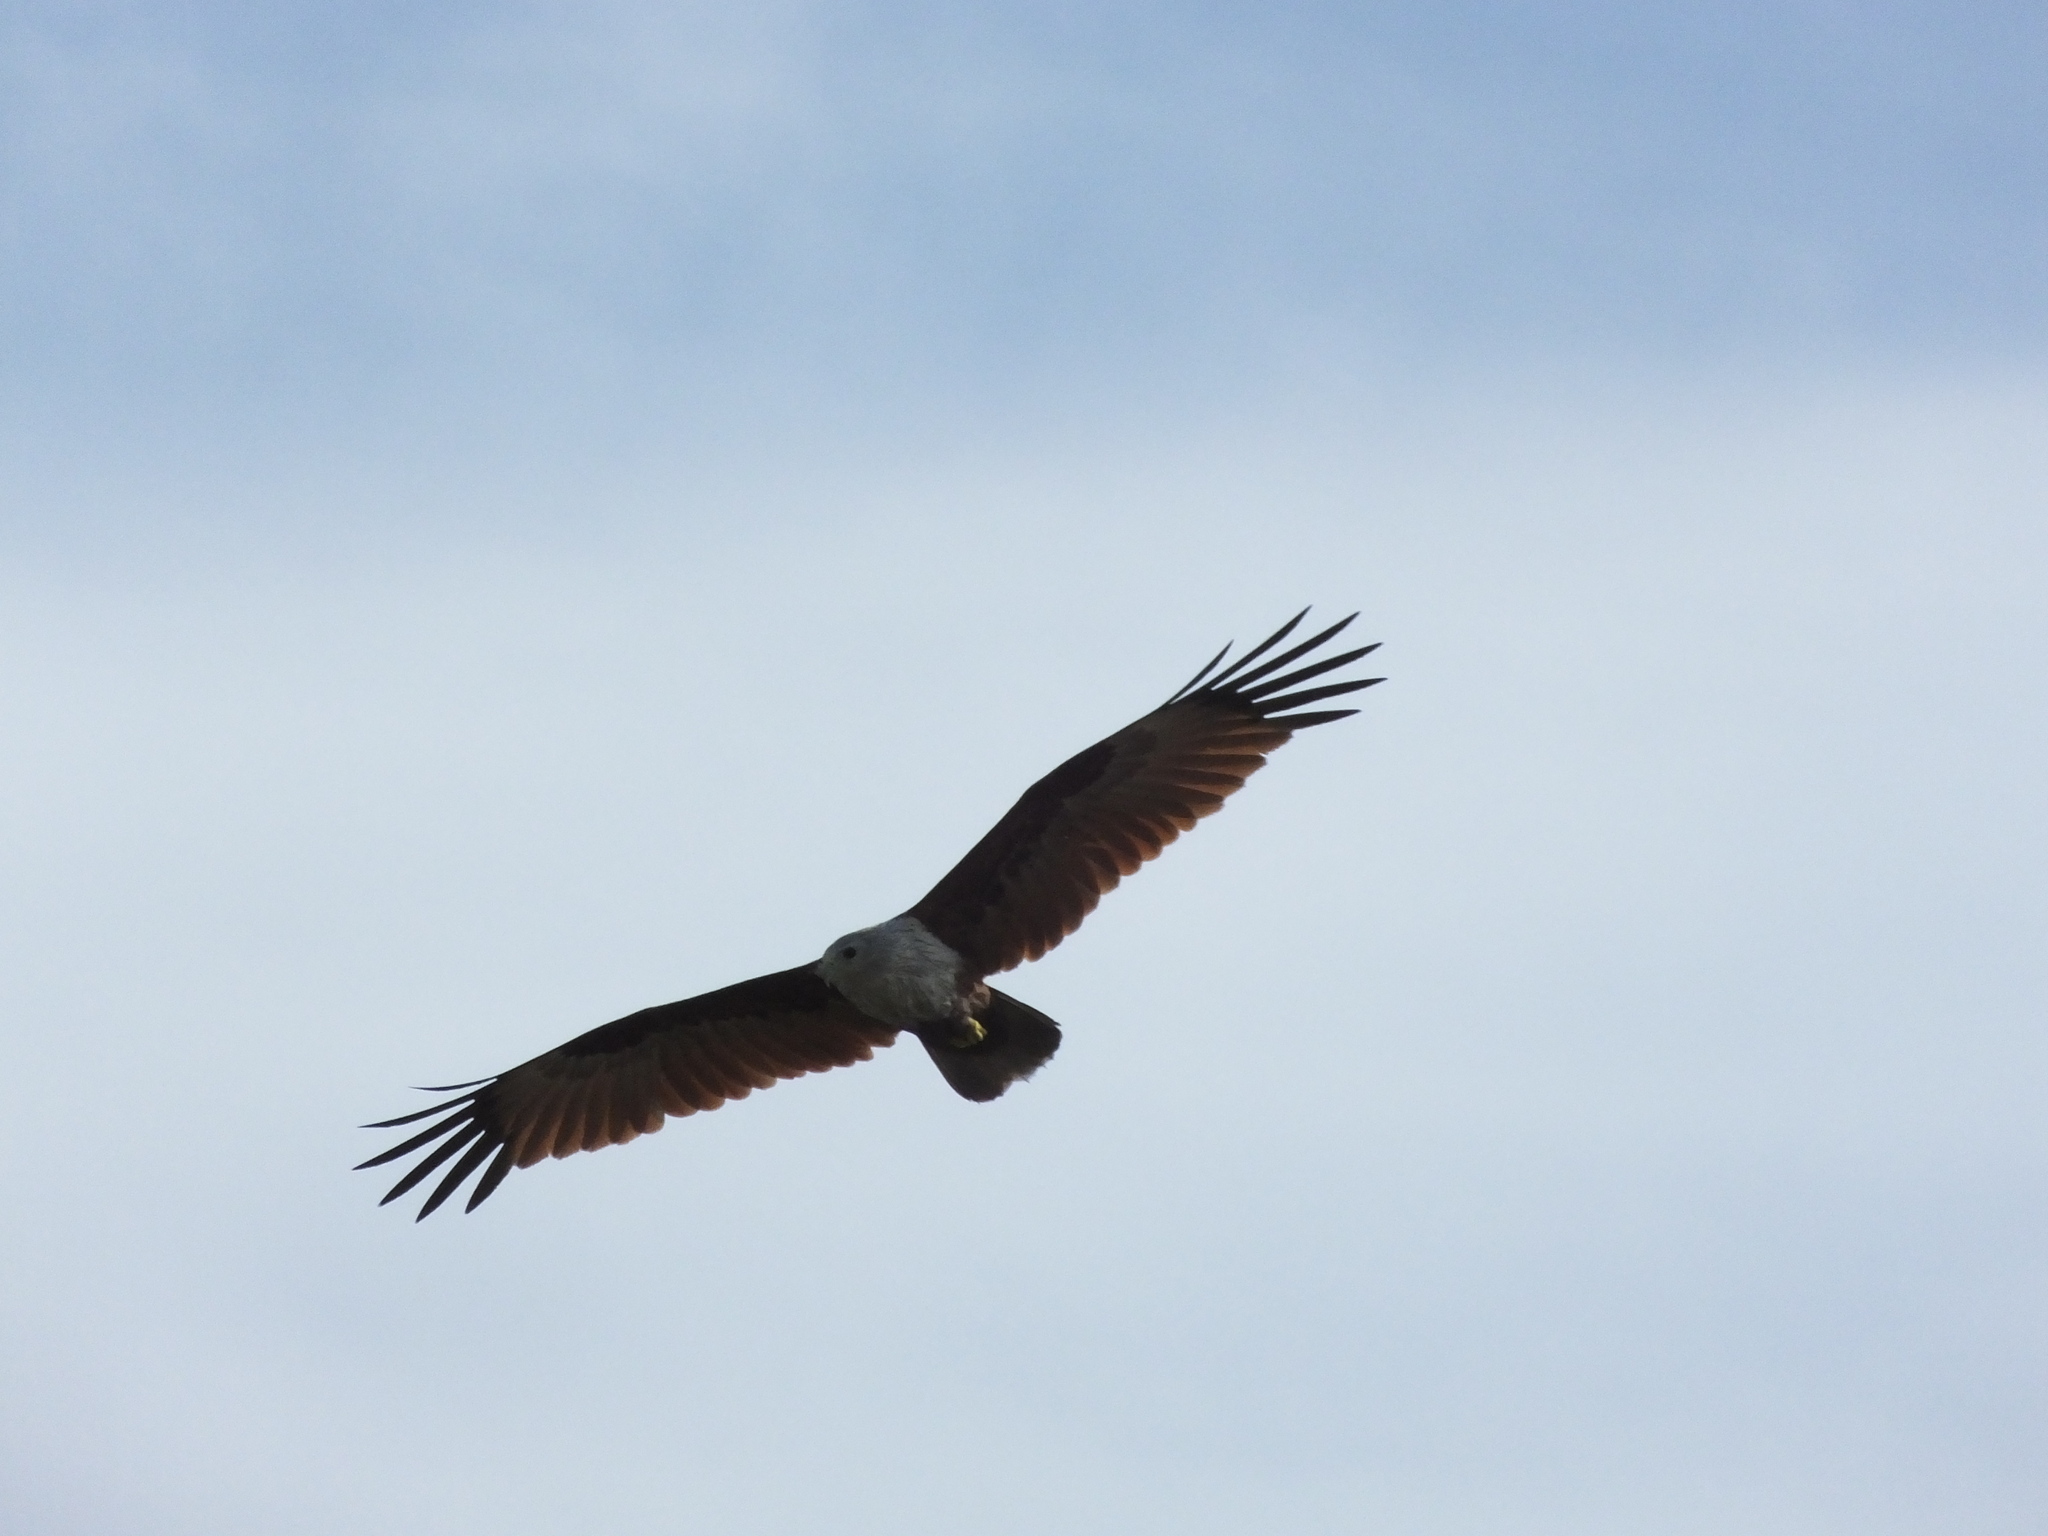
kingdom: Animalia
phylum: Chordata
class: Aves
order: Accipitriformes
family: Accipitridae
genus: Haliastur
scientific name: Haliastur indus
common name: Brahminy kite
